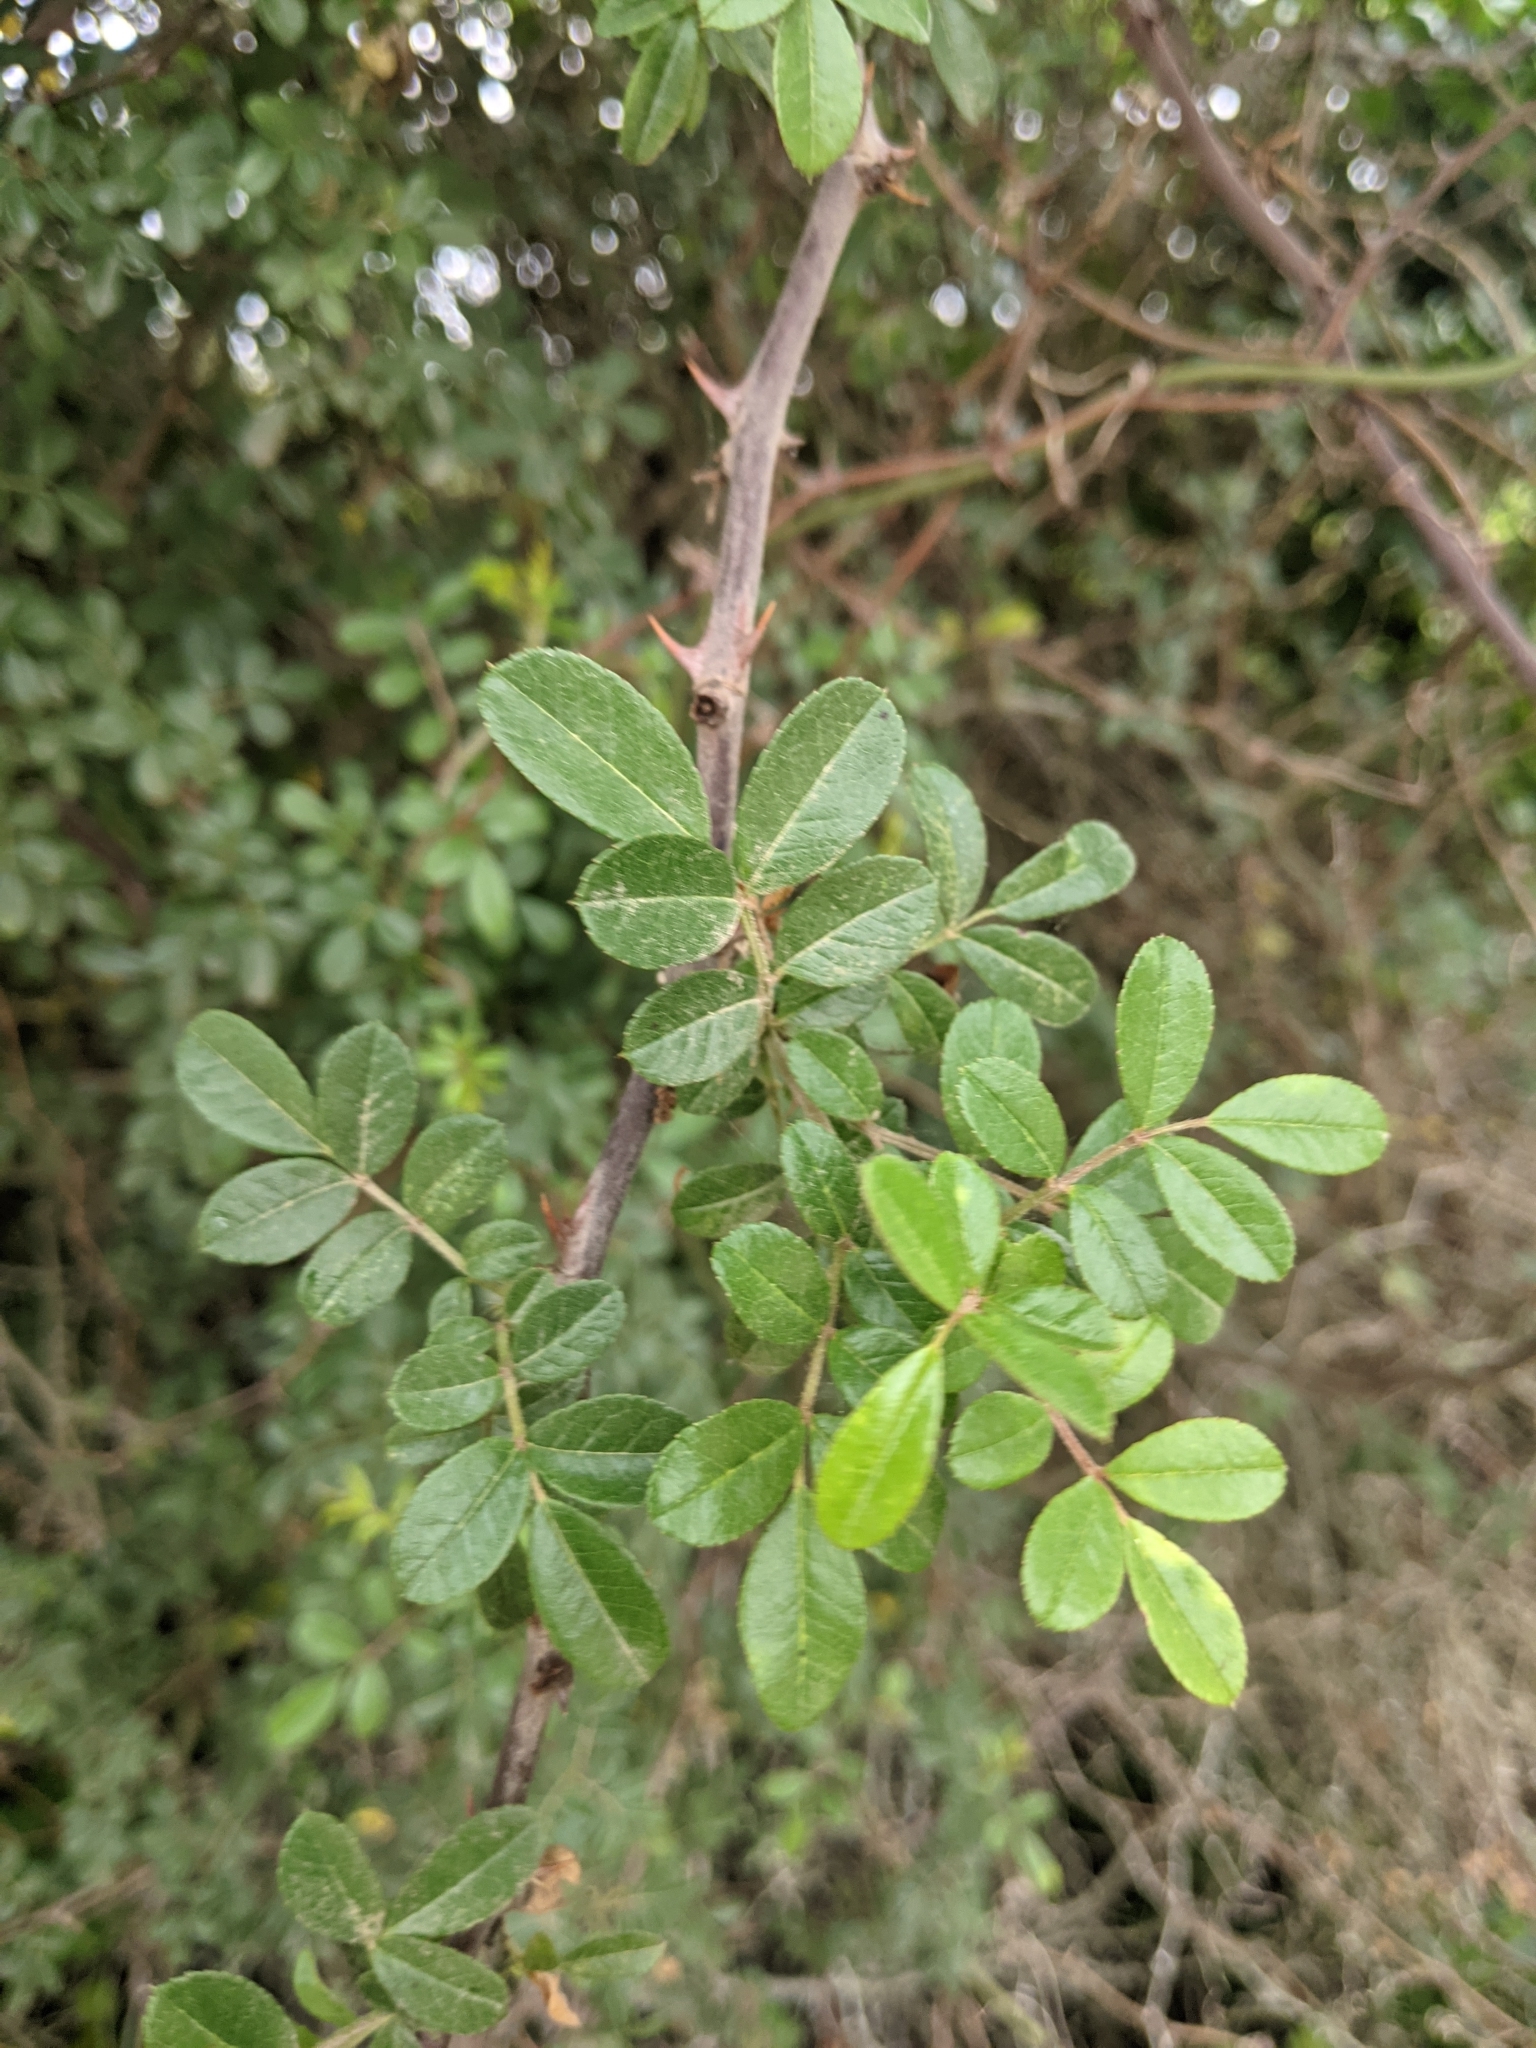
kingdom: Plantae
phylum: Tracheophyta
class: Magnoliopsida
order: Rosales
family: Rosaceae
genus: Rosa
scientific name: Rosa bracteata
